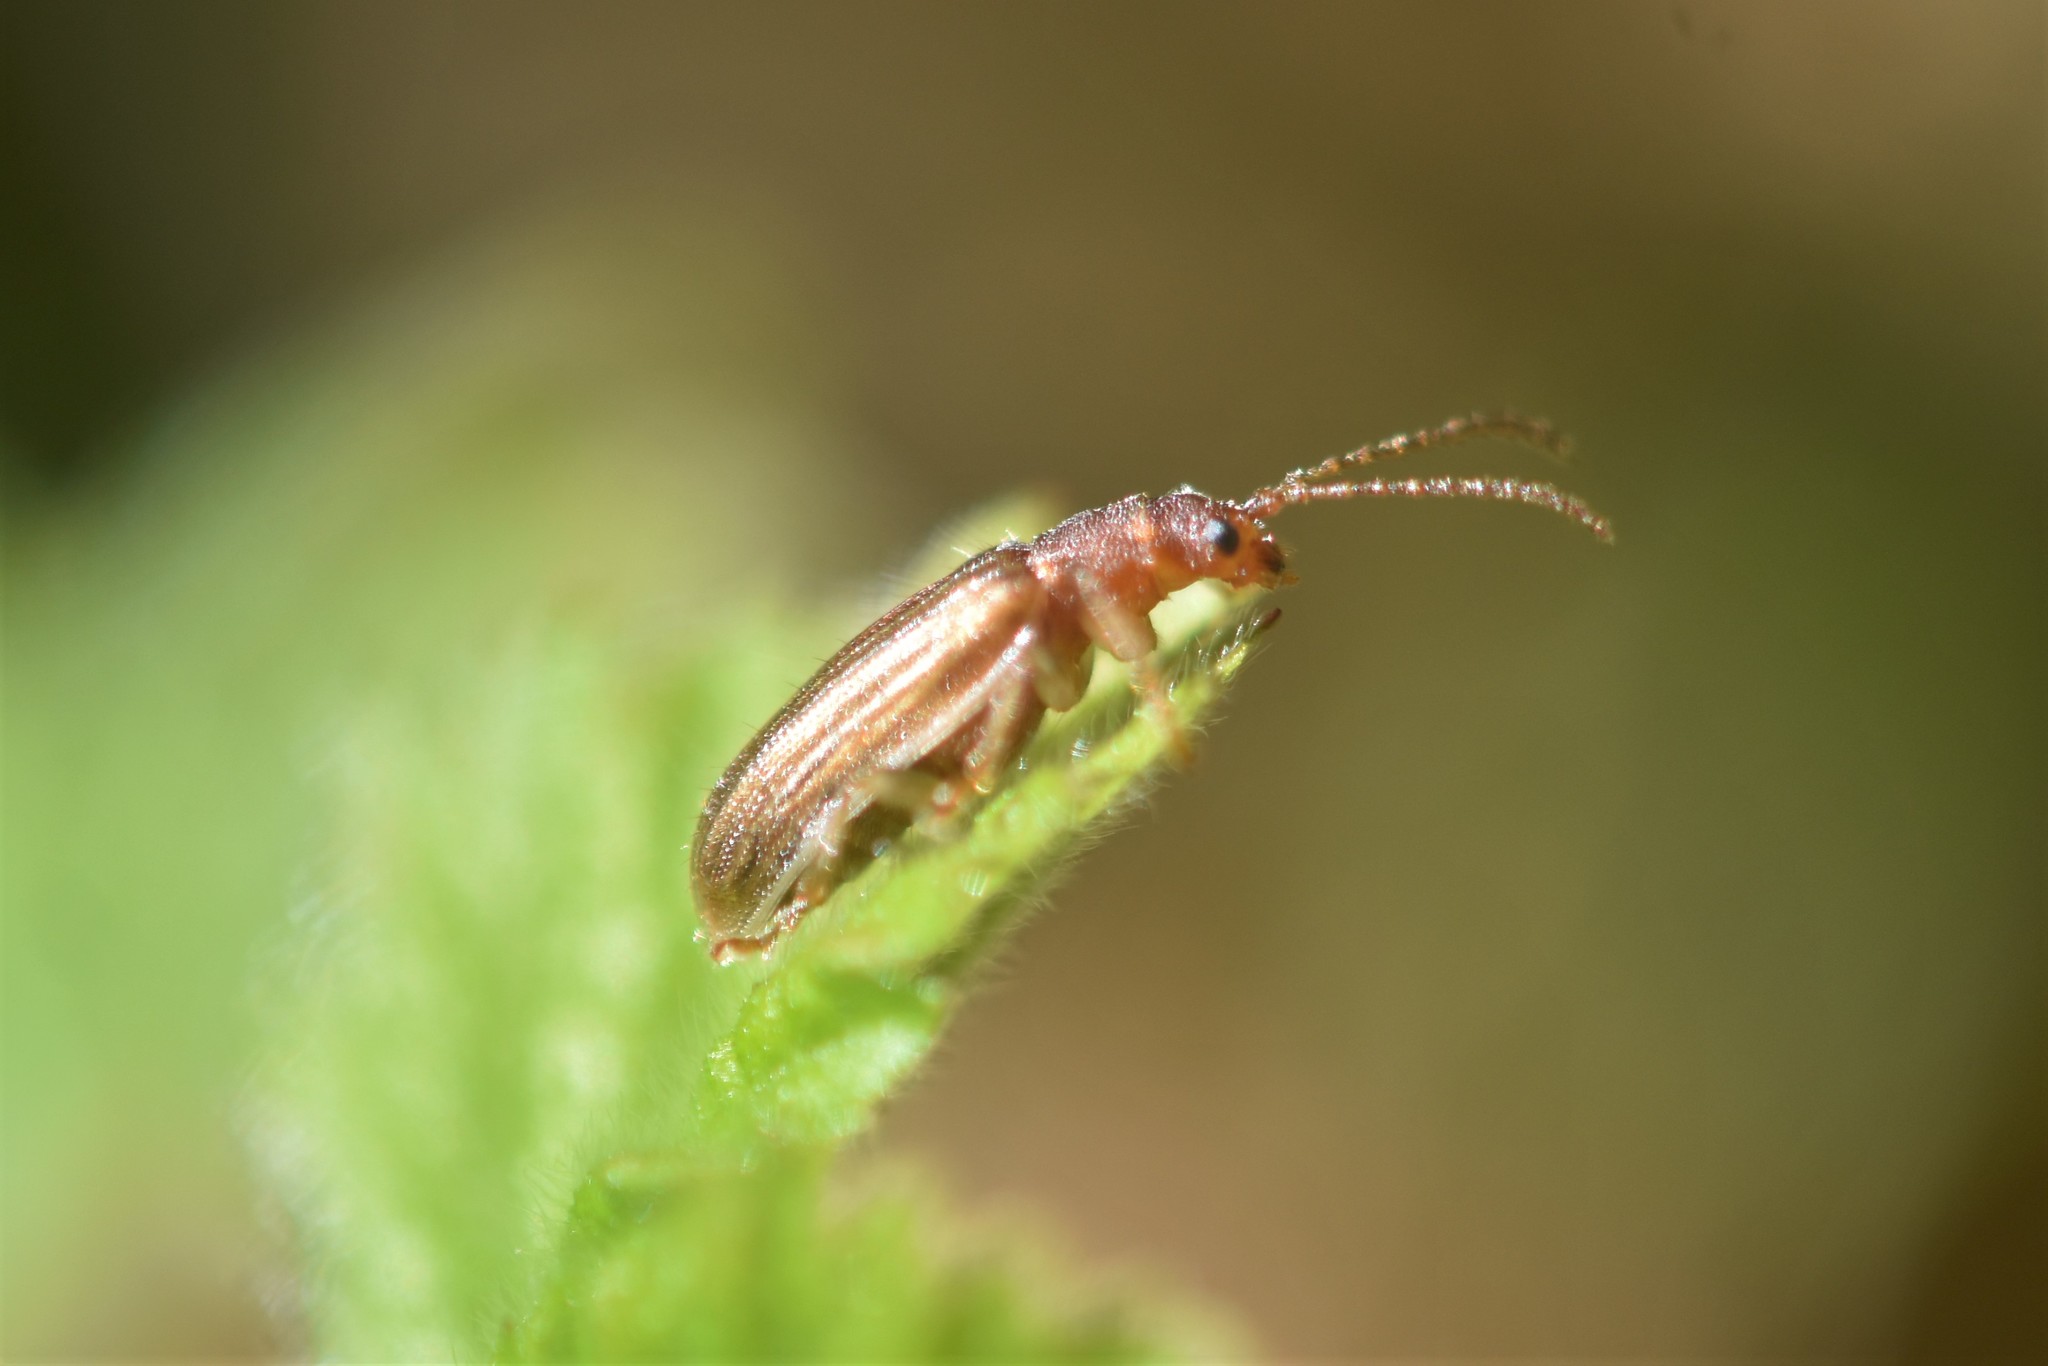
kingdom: Animalia
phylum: Arthropoda
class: Insecta
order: Coleoptera
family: Chrysomelidae
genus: Pyrrhalta
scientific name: Pyrrhalta viburni
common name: Guelder-rose leaf beetle
